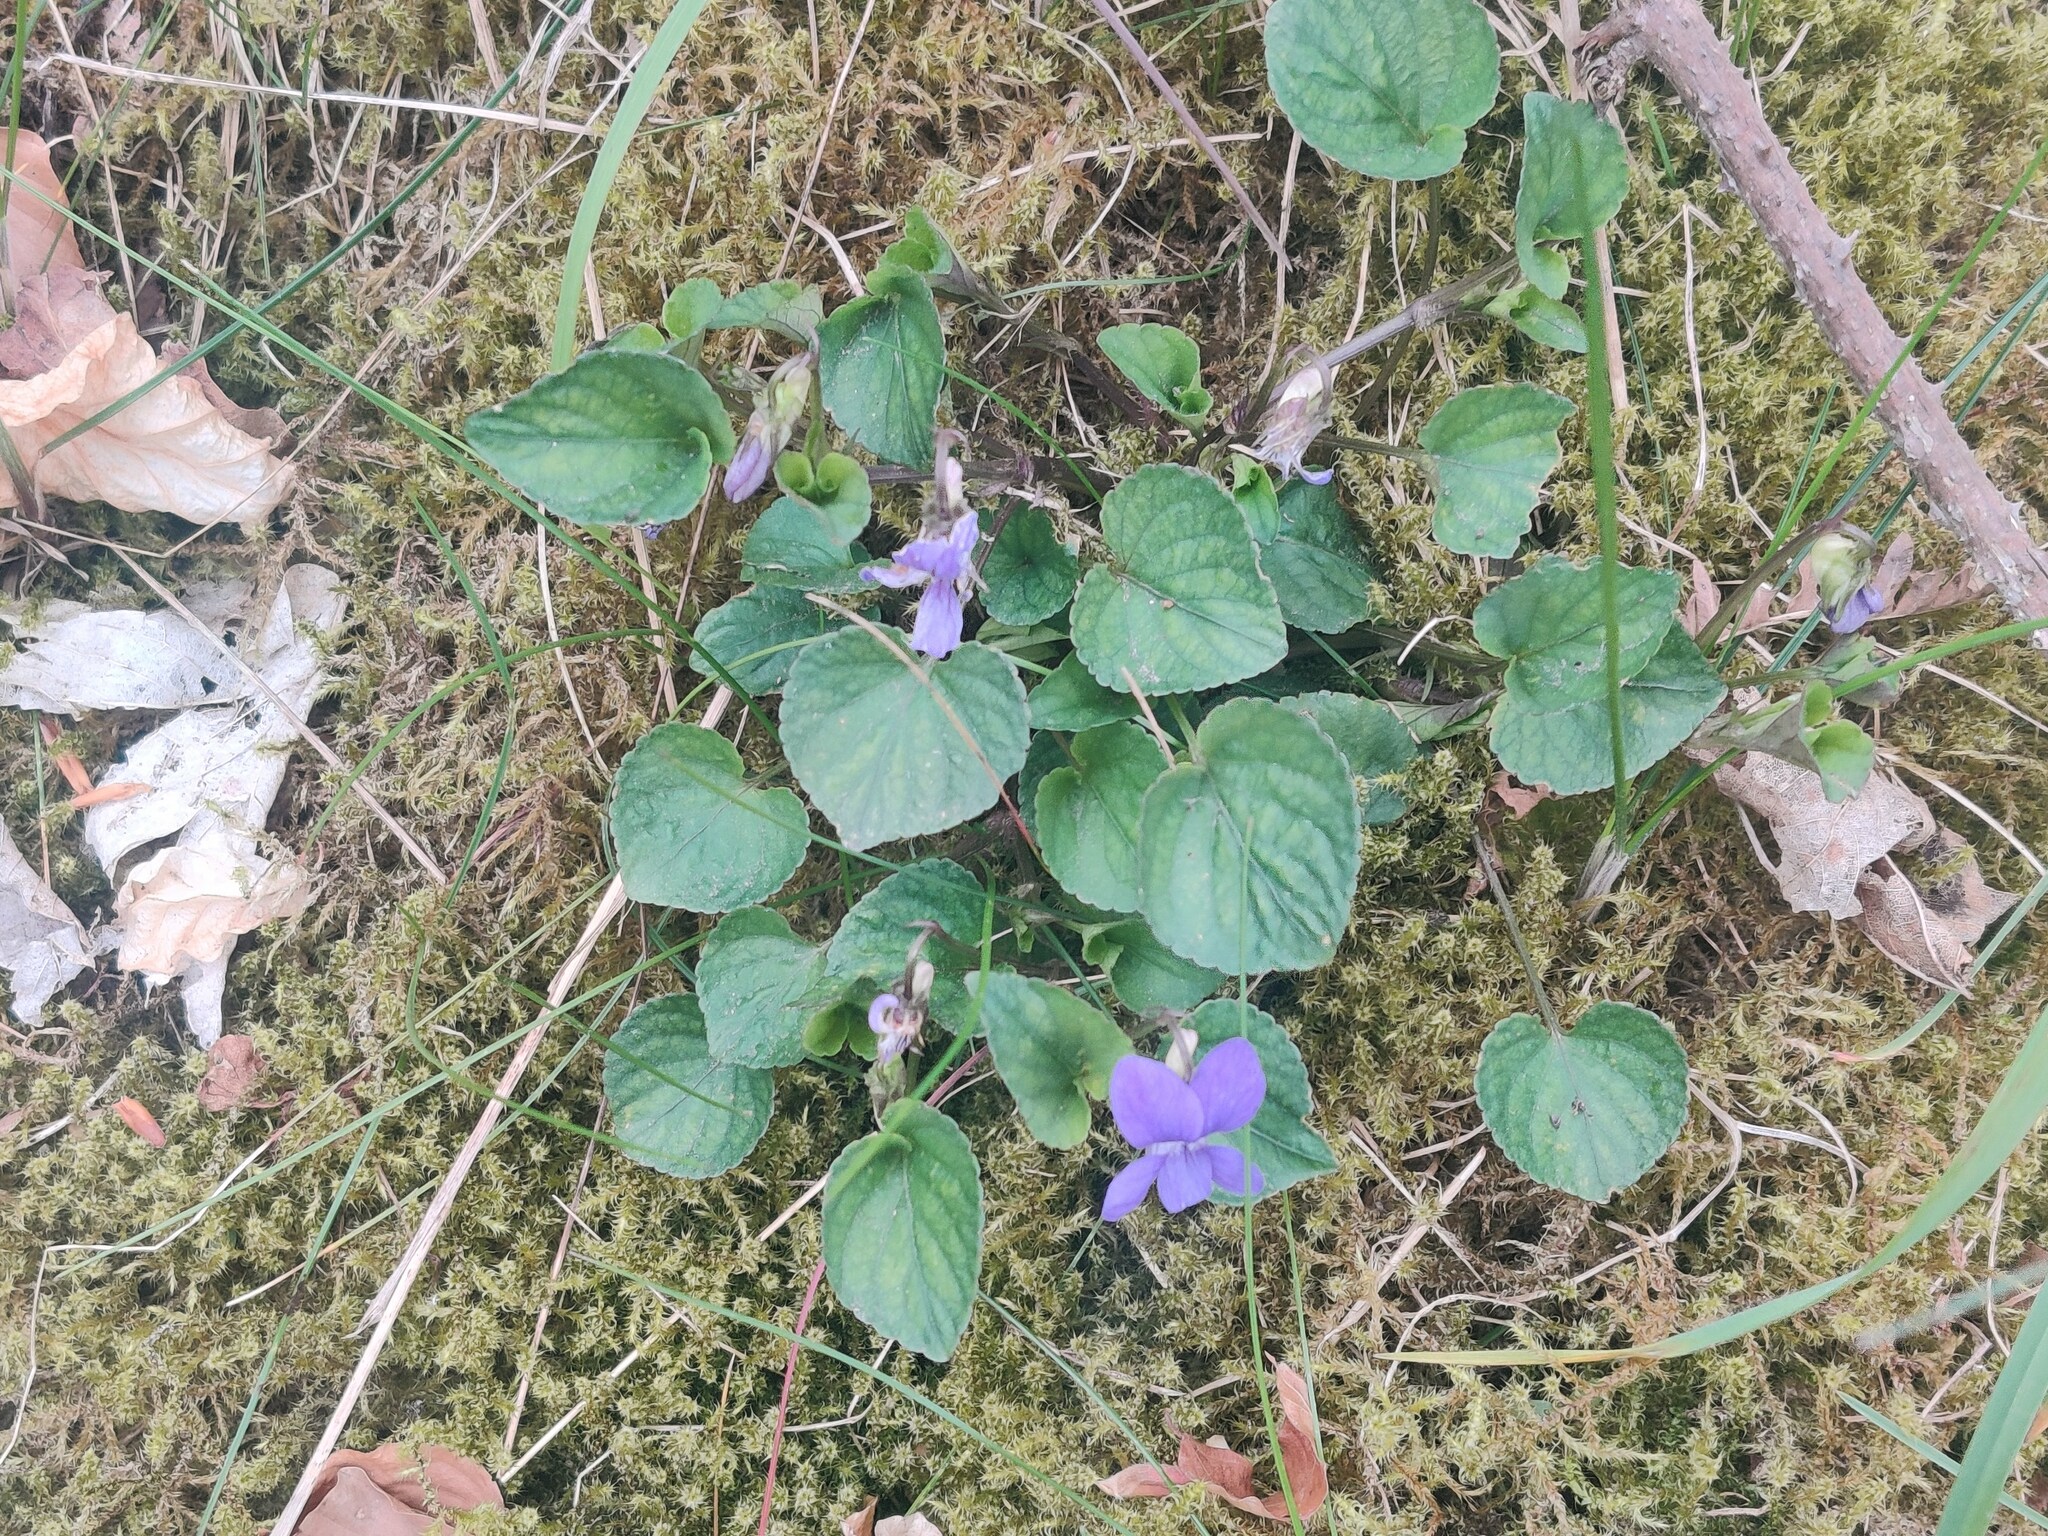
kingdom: Plantae
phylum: Tracheophyta
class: Magnoliopsida
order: Malpighiales
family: Violaceae
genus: Viola
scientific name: Viola riviniana
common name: Common dog-violet
